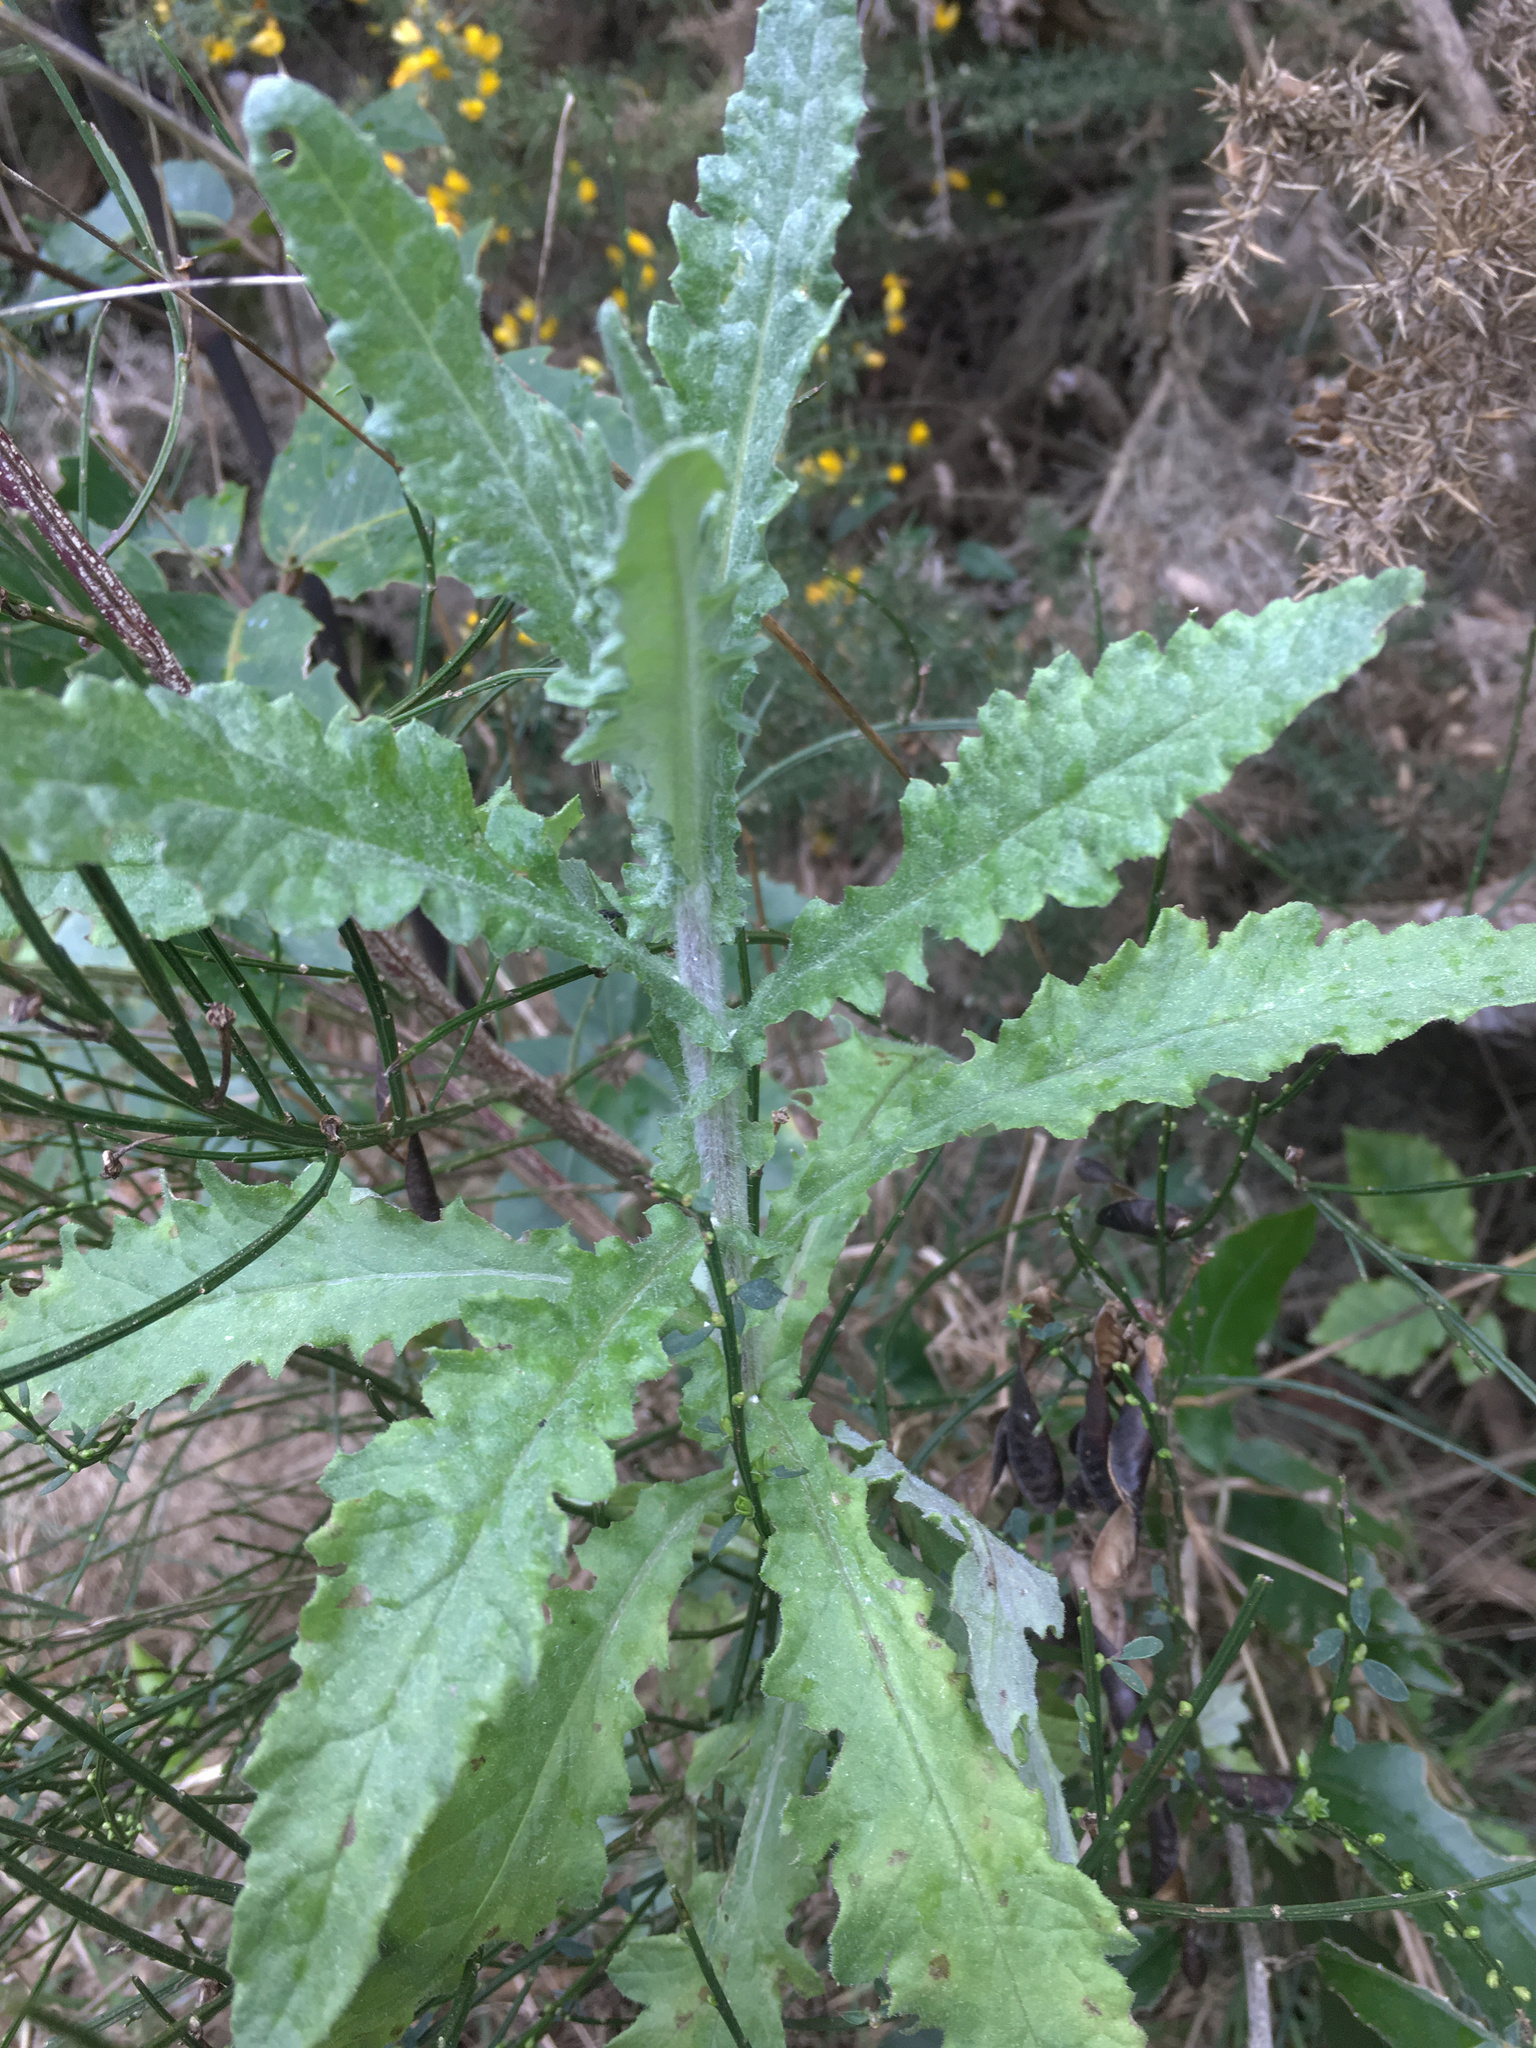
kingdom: Plantae
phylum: Tracheophyta
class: Magnoliopsida
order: Asterales
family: Asteraceae
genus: Senecio
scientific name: Senecio glomeratus
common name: Cutleaf burnweed
